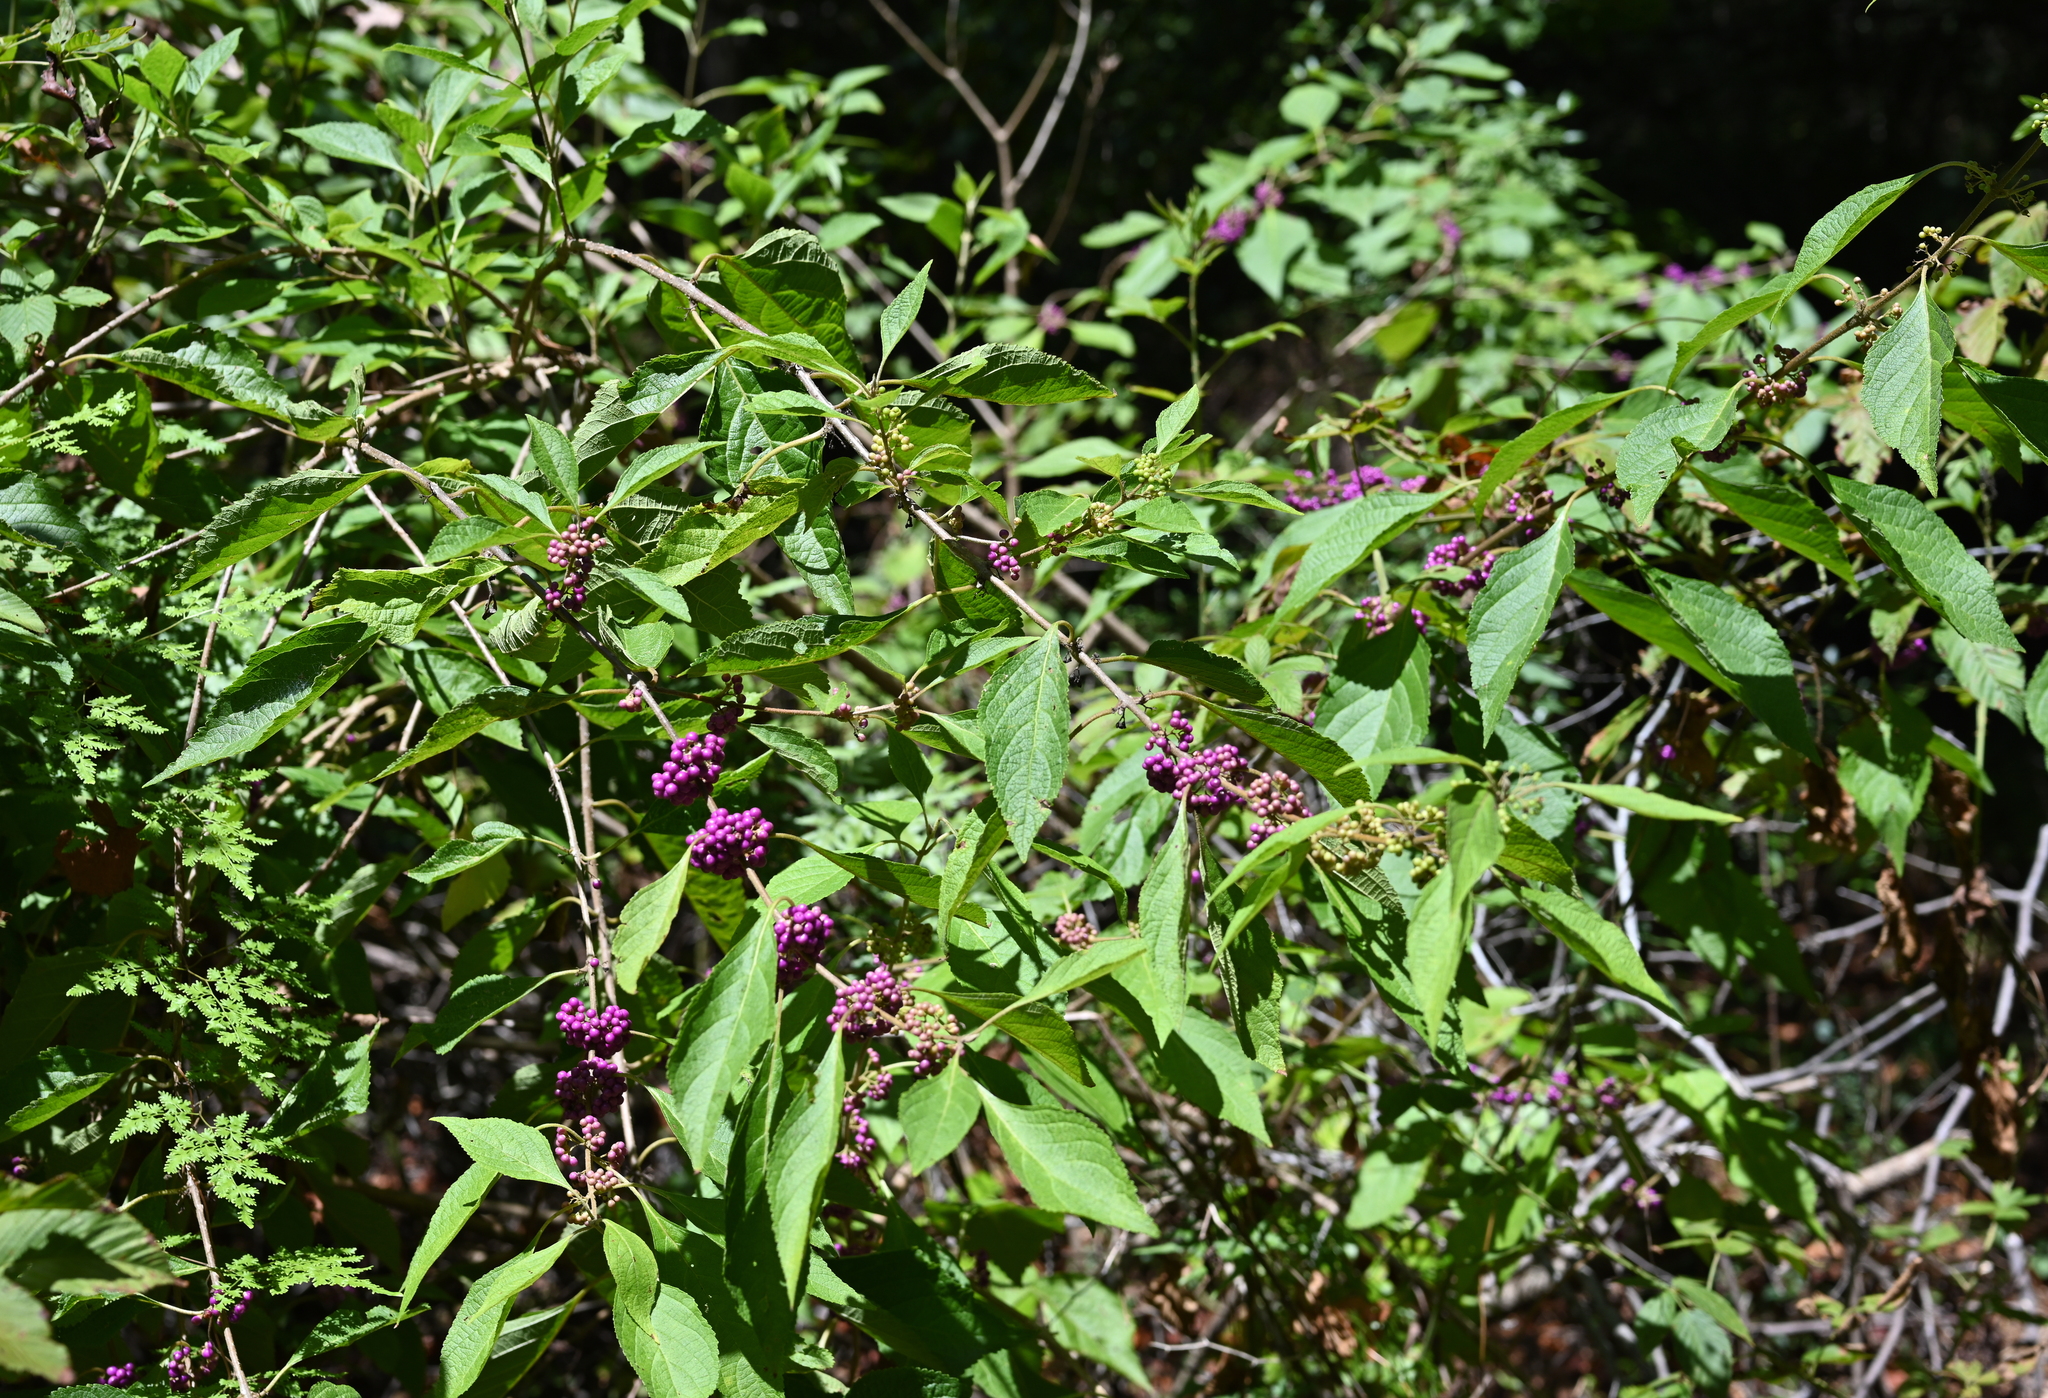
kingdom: Plantae
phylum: Tracheophyta
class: Magnoliopsida
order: Lamiales
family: Lamiaceae
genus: Callicarpa
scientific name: Callicarpa americana
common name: American beautyberry
